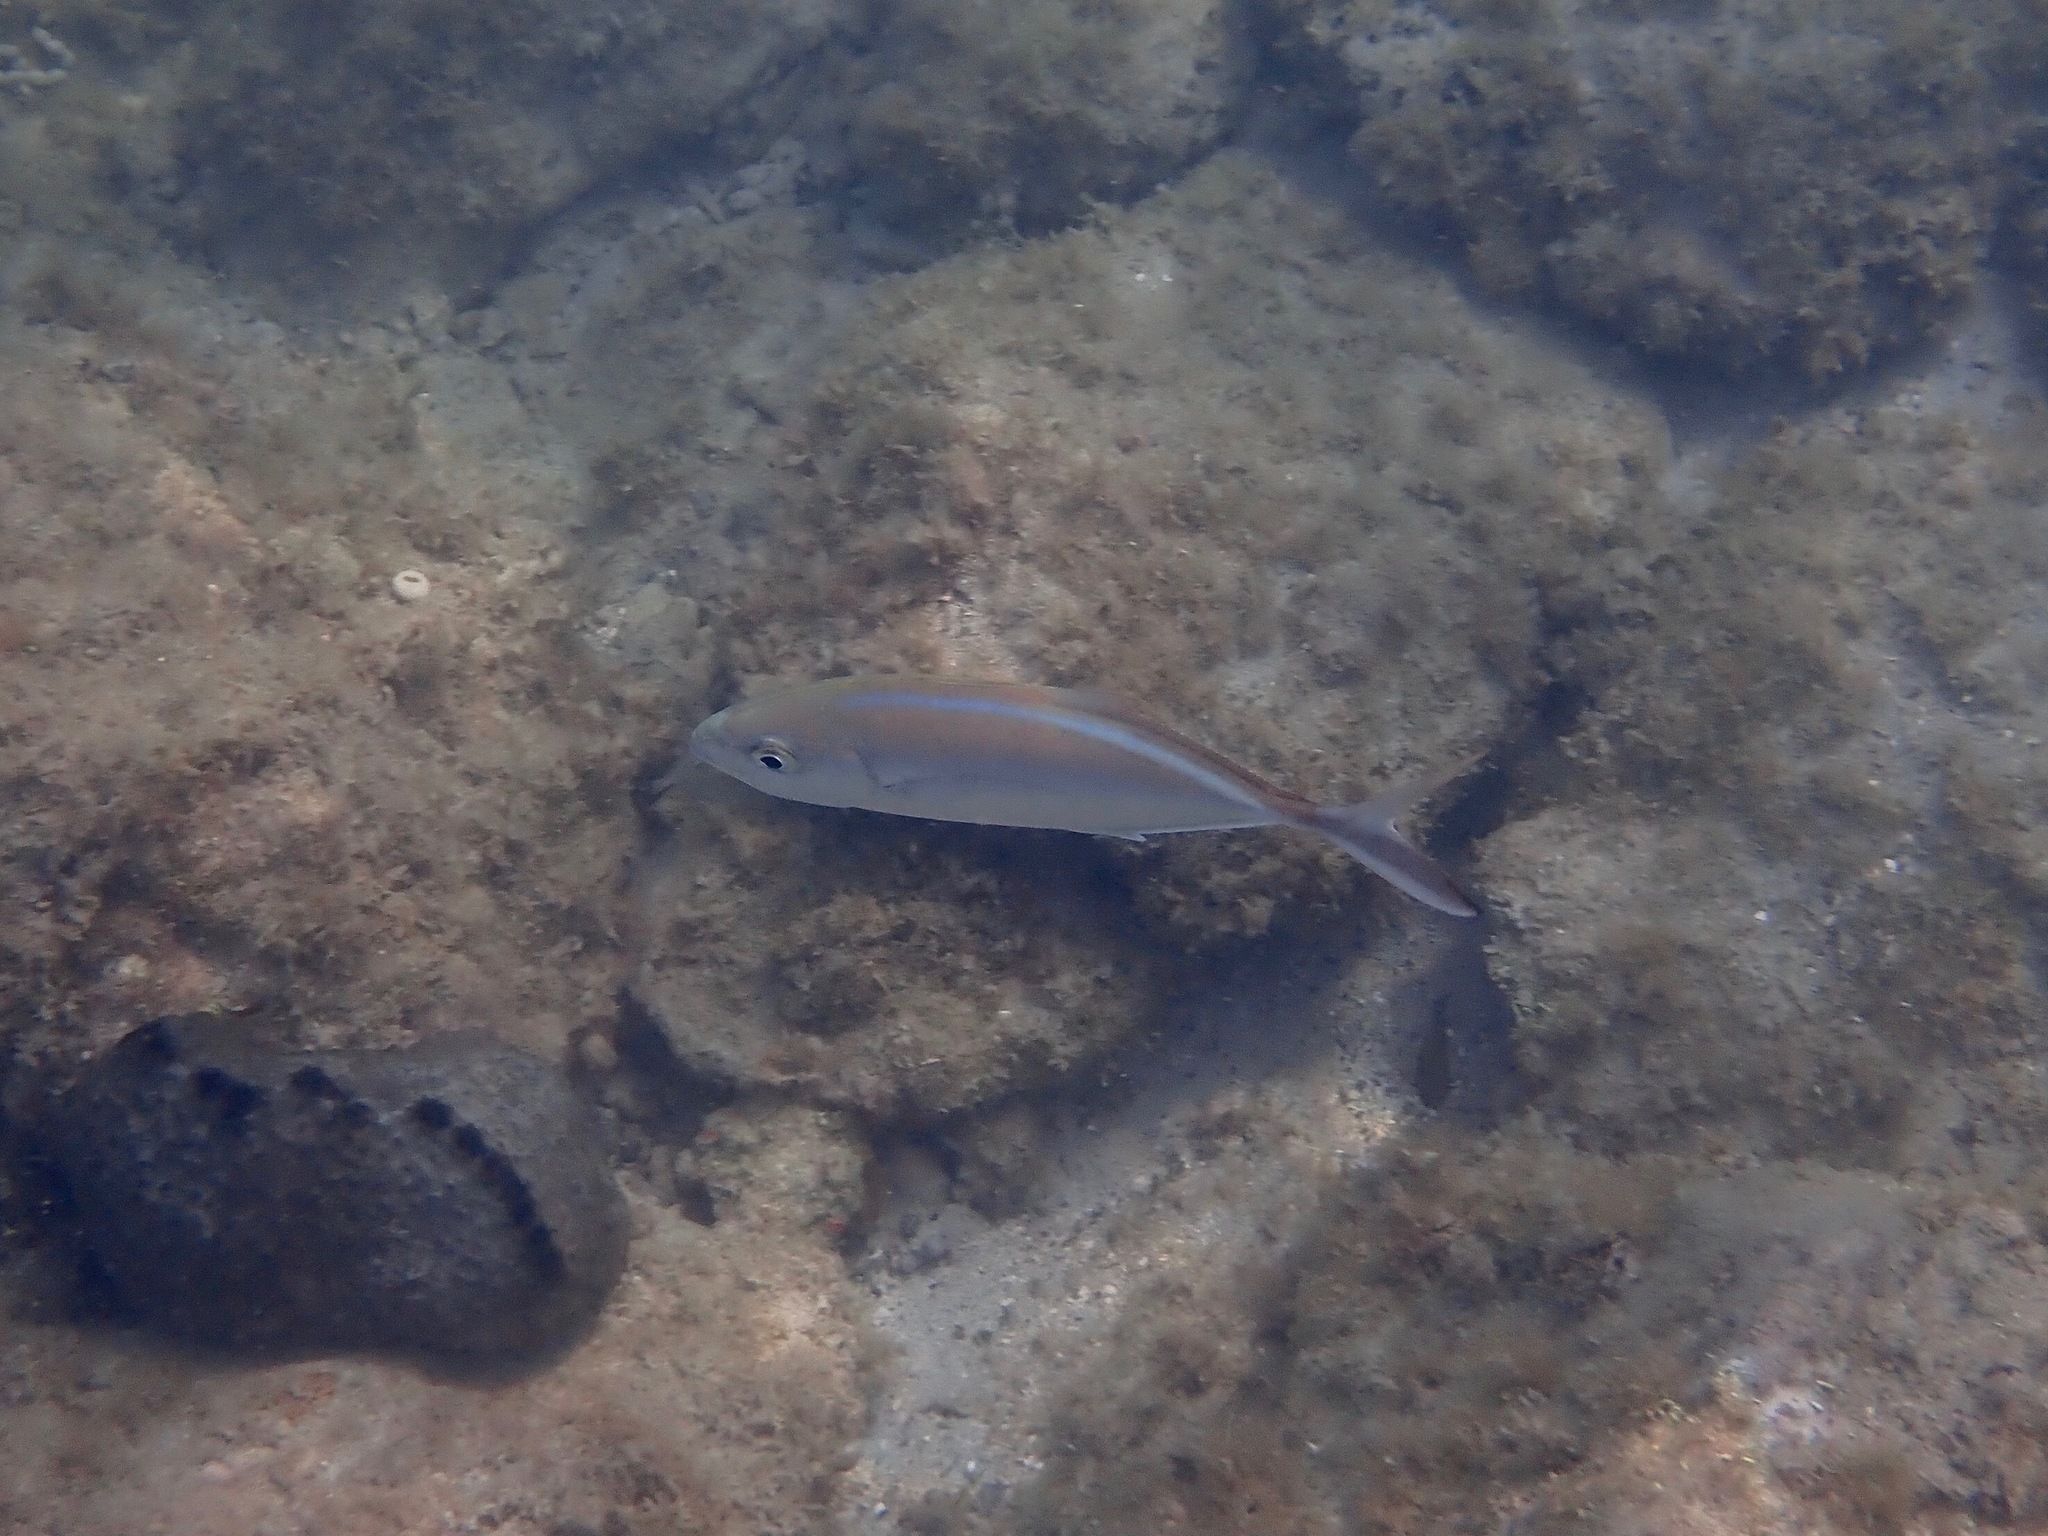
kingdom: Animalia
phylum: Chordata
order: Perciformes
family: Carangidae
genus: Caranx
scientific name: Caranx ruber
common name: Bar jack
